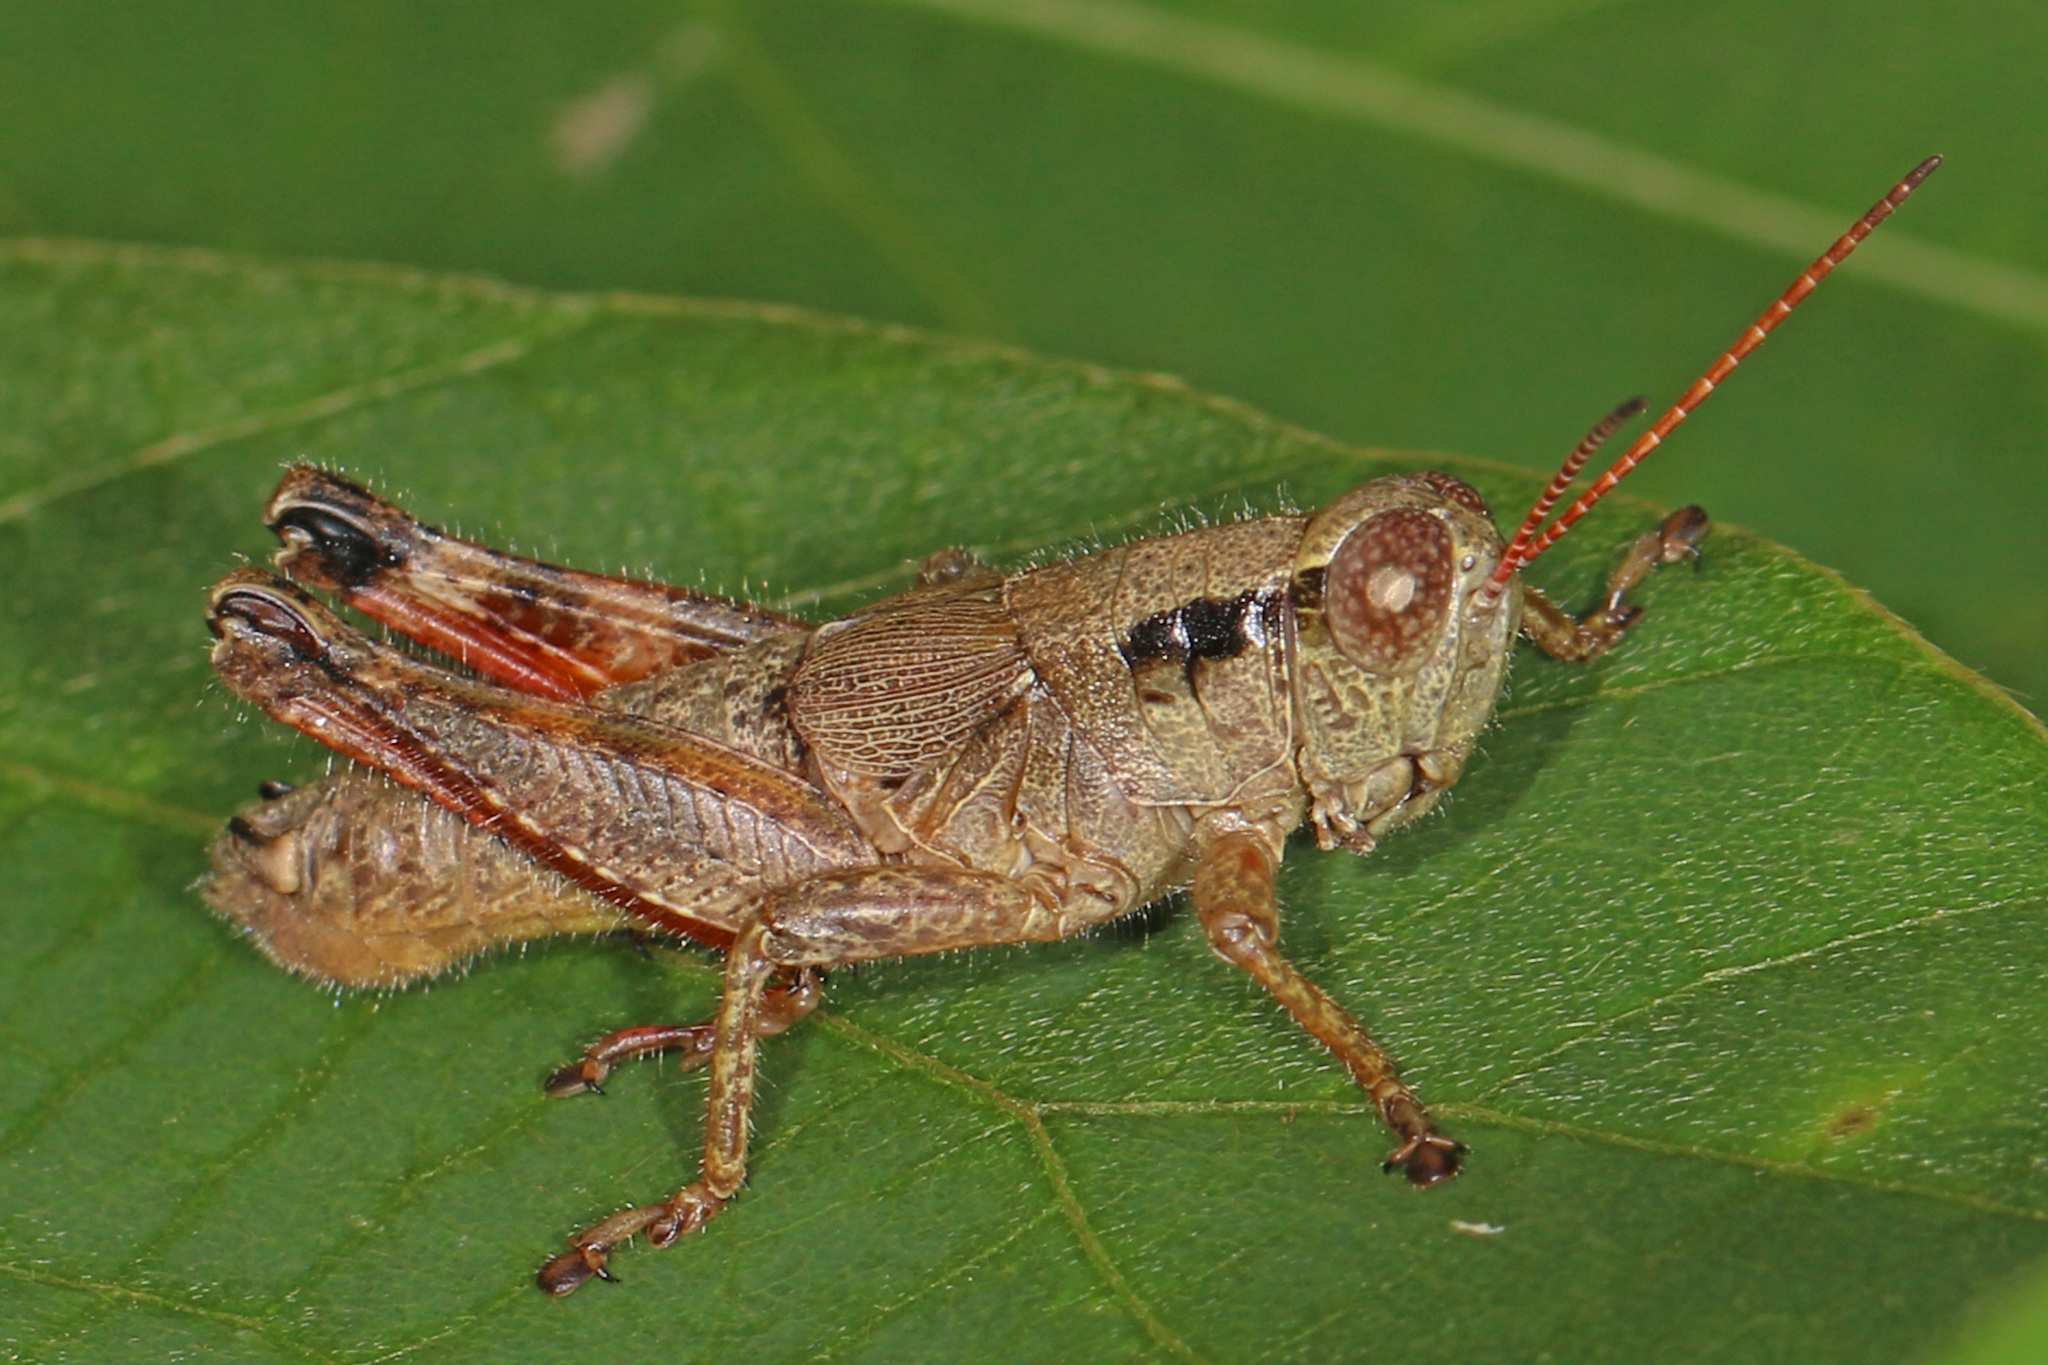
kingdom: Animalia
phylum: Arthropoda
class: Insecta
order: Orthoptera
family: Acrididae
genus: Melanoplus
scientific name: Melanoplus scudderi
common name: Scudder's short-winged locust
